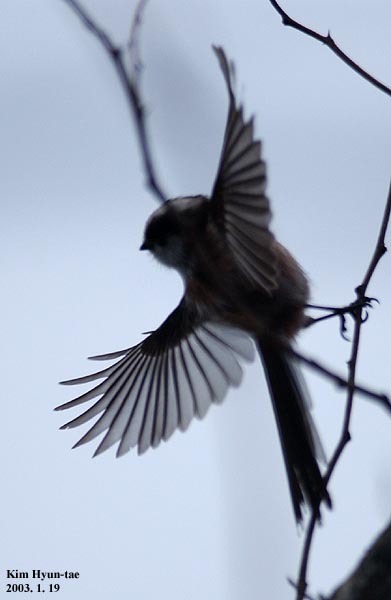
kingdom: Animalia
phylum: Chordata
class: Aves
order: Passeriformes
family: Aegithalidae
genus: Aegithalos
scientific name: Aegithalos caudatus
